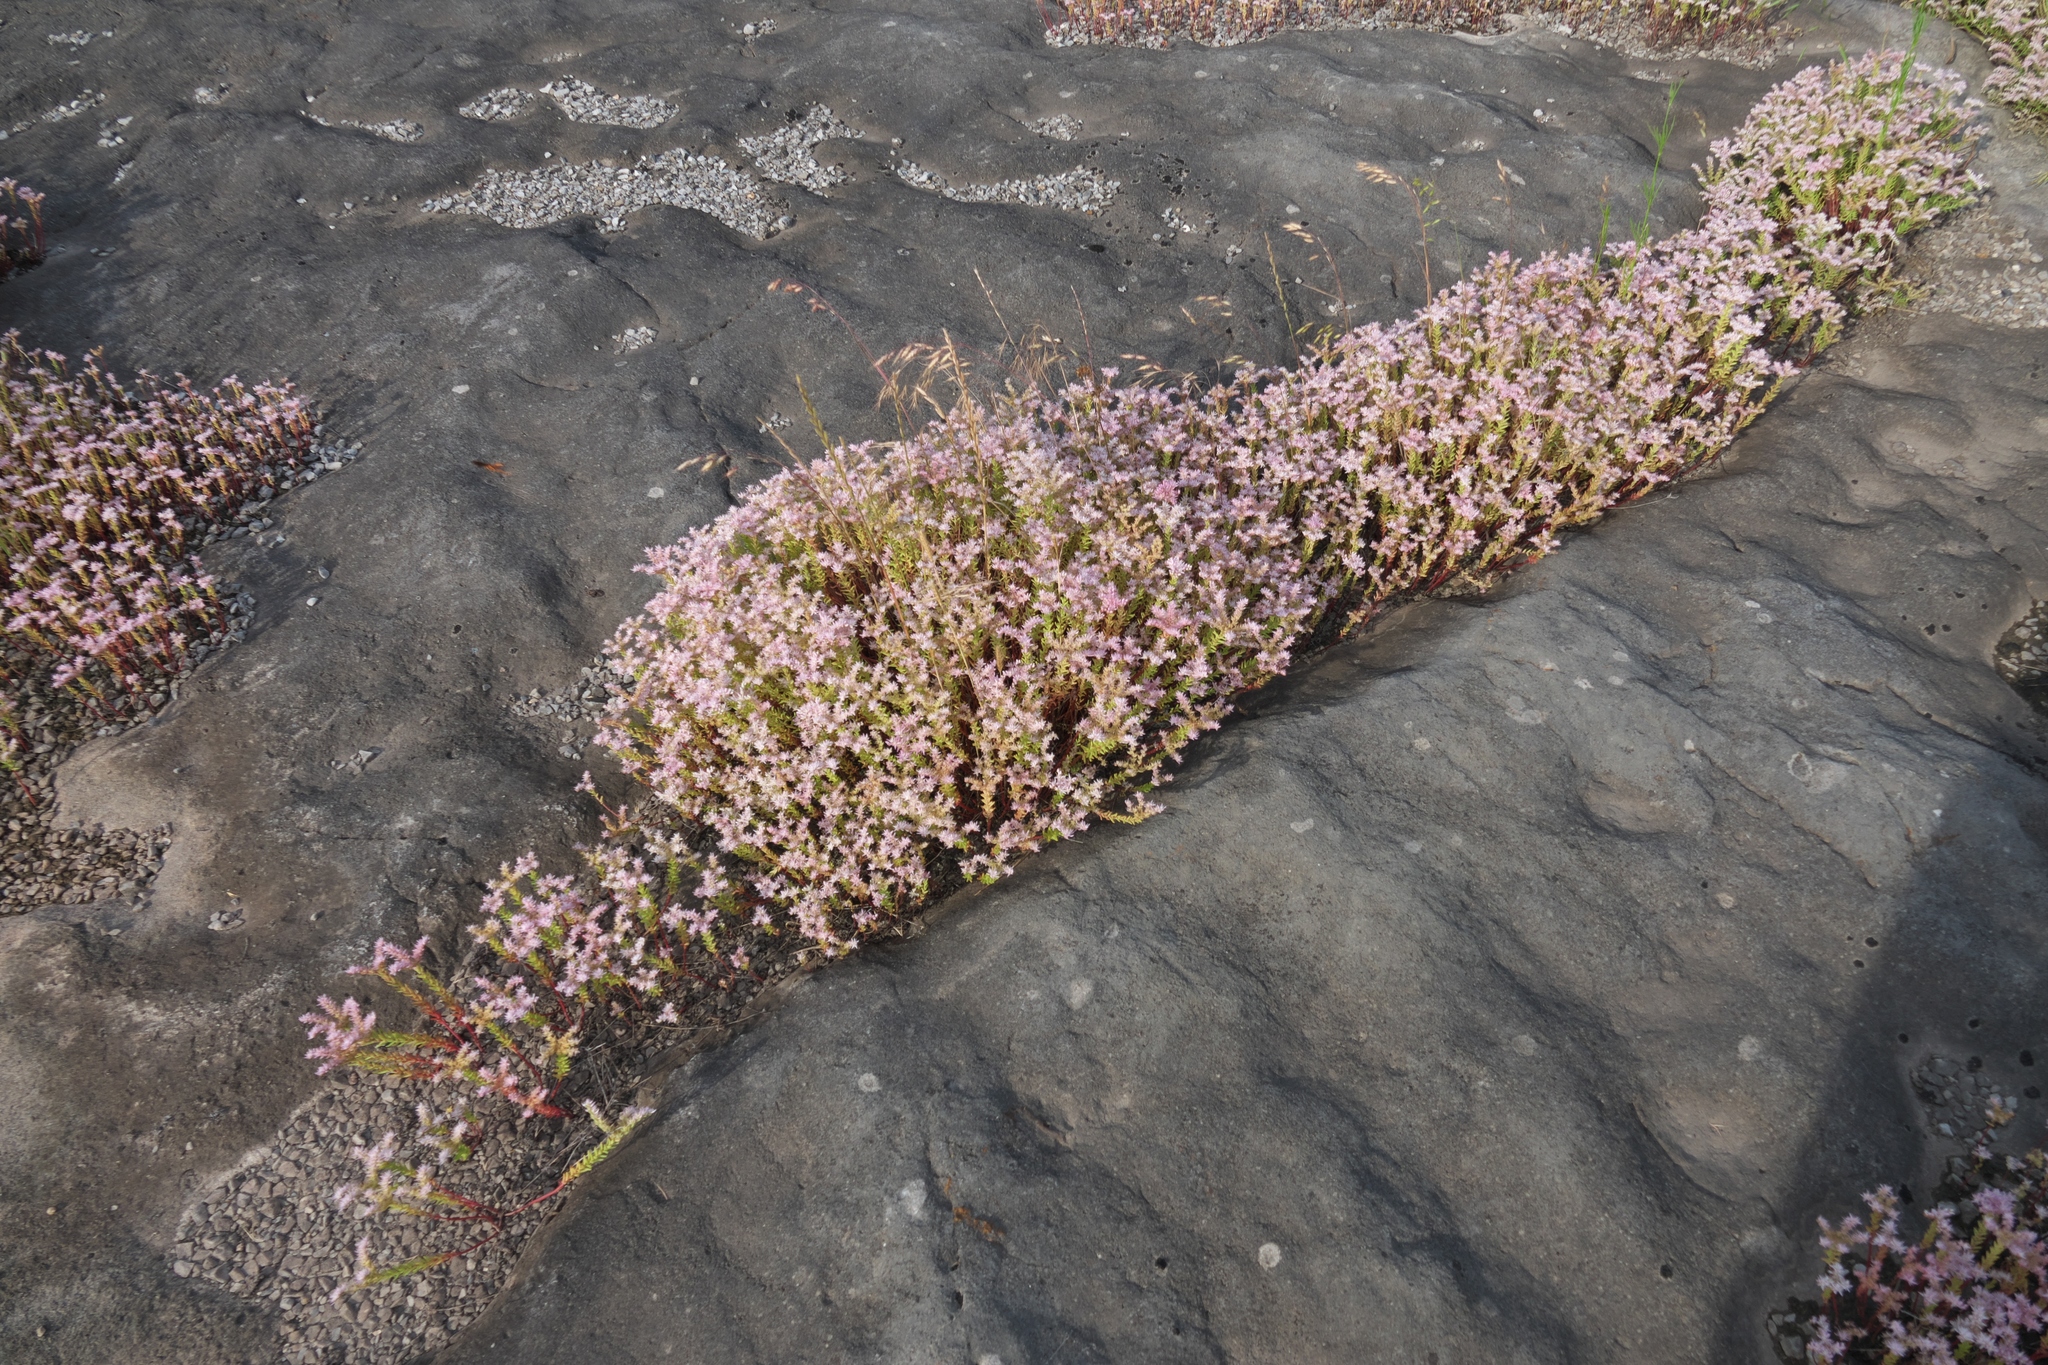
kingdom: Plantae
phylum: Tracheophyta
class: Magnoliopsida
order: Saxifragales
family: Crassulaceae
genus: Sedum
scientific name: Sedum pulchellum
